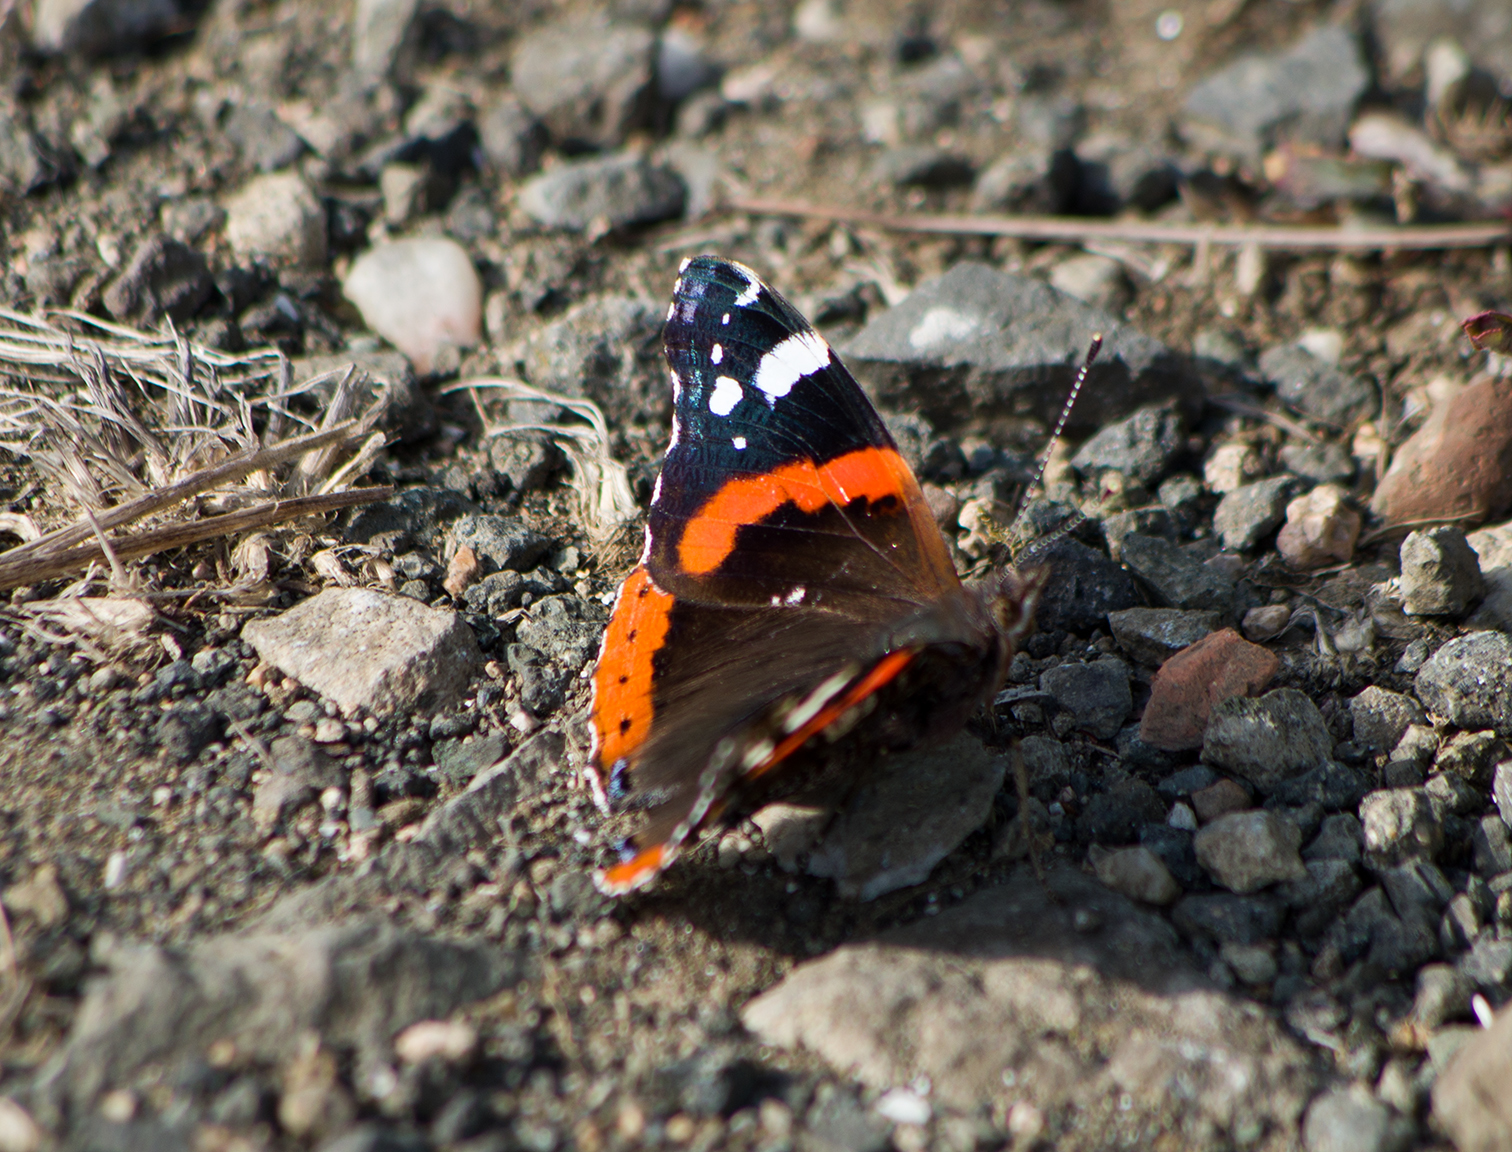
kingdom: Animalia
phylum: Arthropoda
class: Insecta
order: Lepidoptera
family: Nymphalidae
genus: Vanessa
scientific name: Vanessa atalanta
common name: Red admiral
